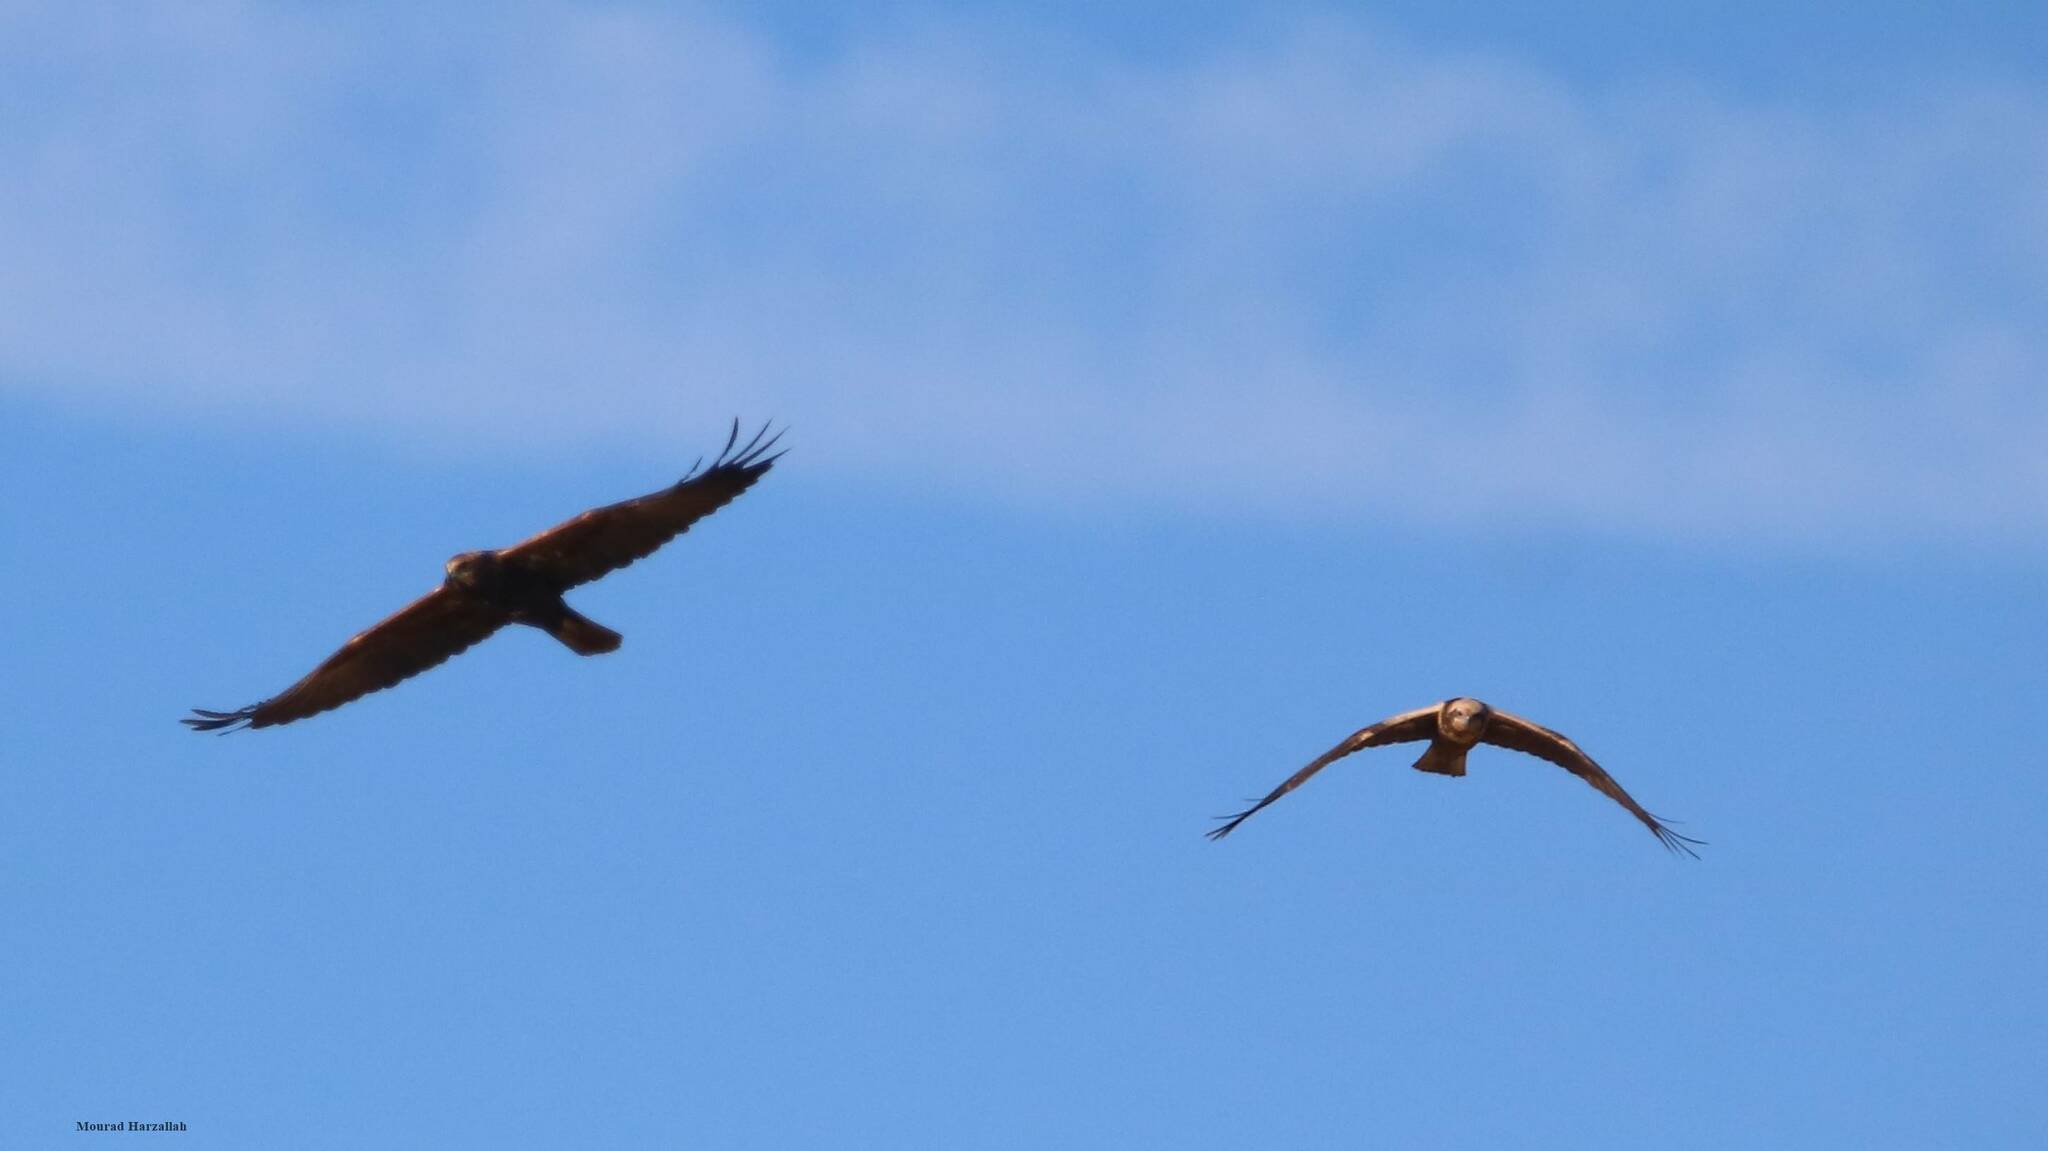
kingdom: Animalia
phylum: Chordata
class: Aves
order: Accipitriformes
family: Accipitridae
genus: Circus
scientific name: Circus aeruginosus
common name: Western marsh harrier
